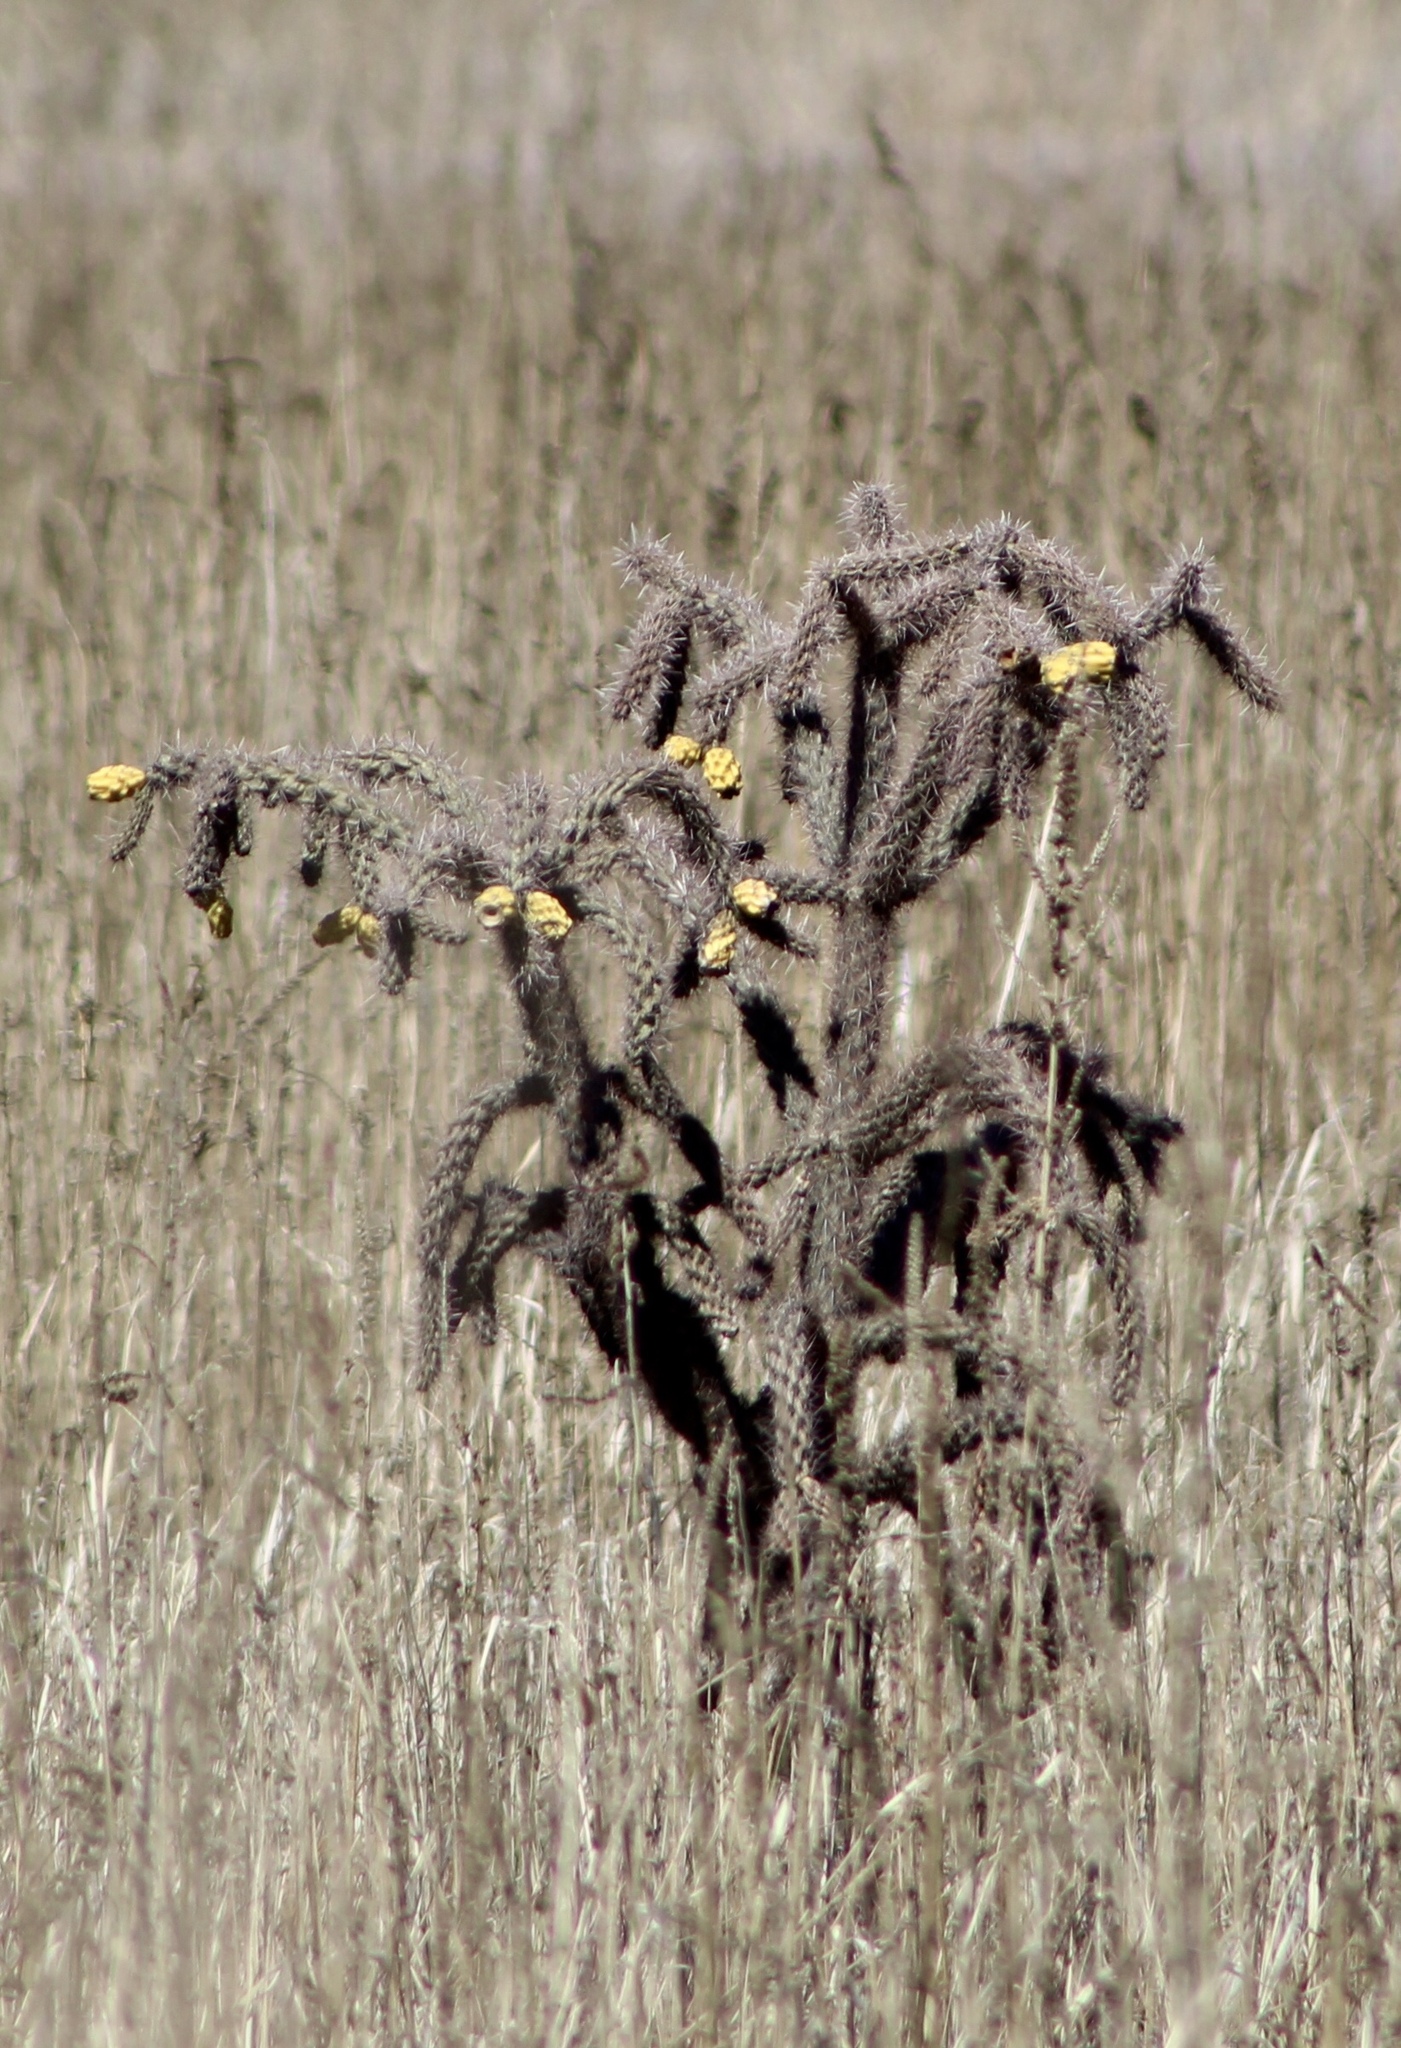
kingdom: Plantae
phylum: Tracheophyta
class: Magnoliopsida
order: Caryophyllales
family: Cactaceae
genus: Cylindropuntia
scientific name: Cylindropuntia imbricata
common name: Candelabrum cactus
